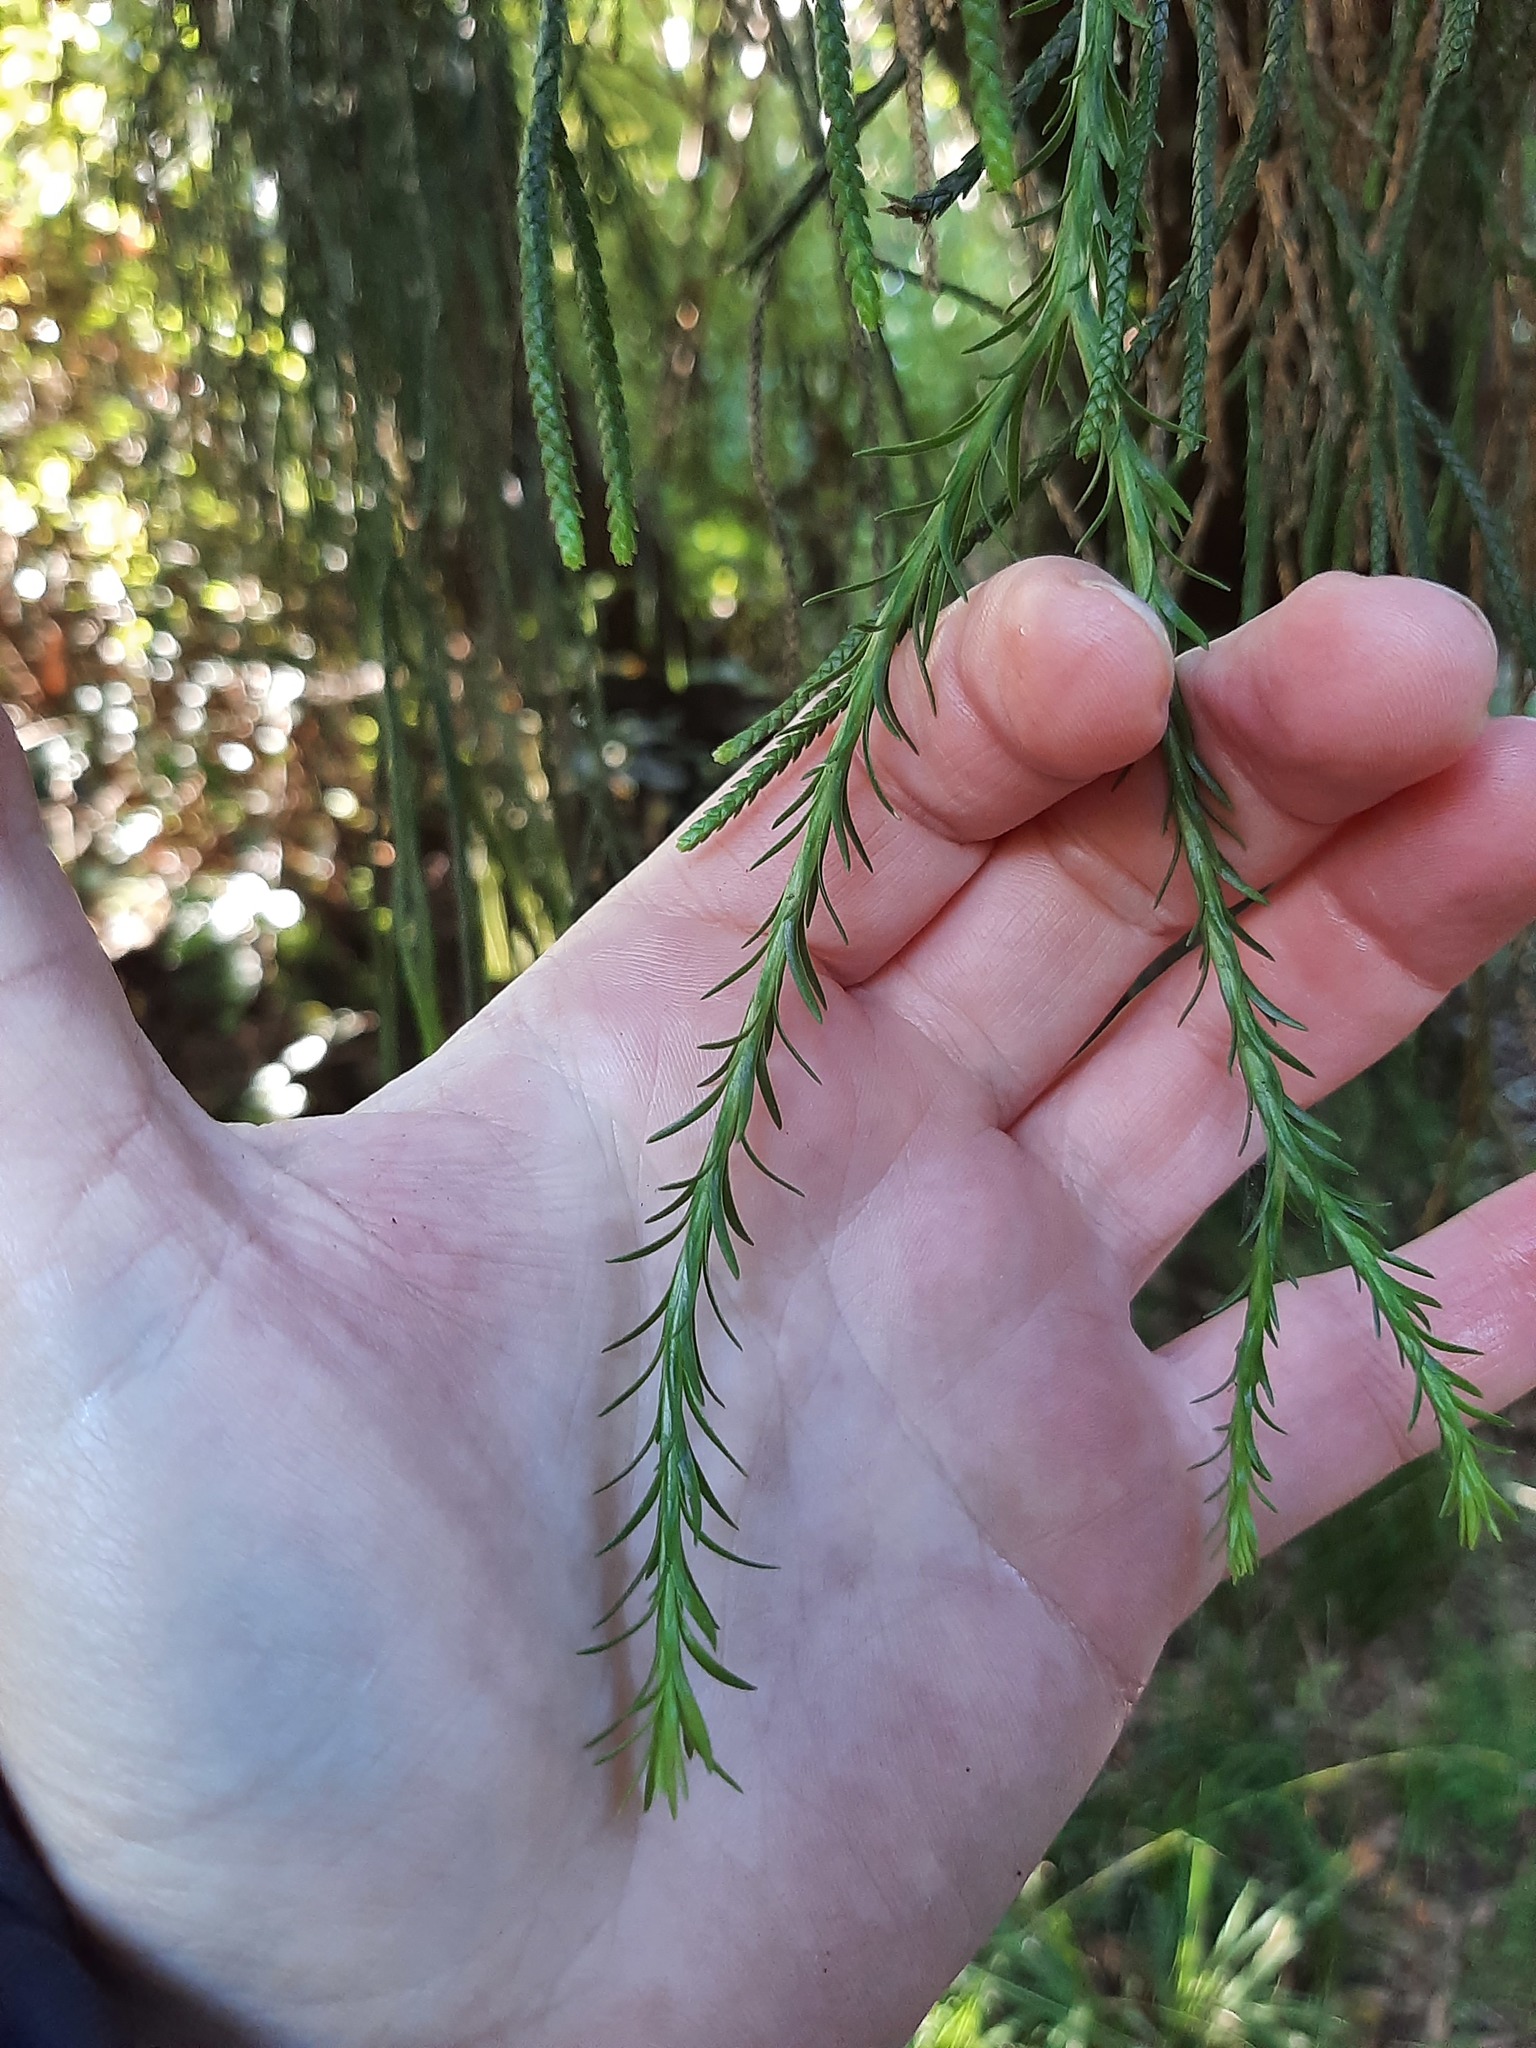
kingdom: Plantae
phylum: Tracheophyta
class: Lycopodiopsida
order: Lycopodiales
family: Lycopodiaceae
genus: Phlegmariurus
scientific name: Phlegmariurus varius
